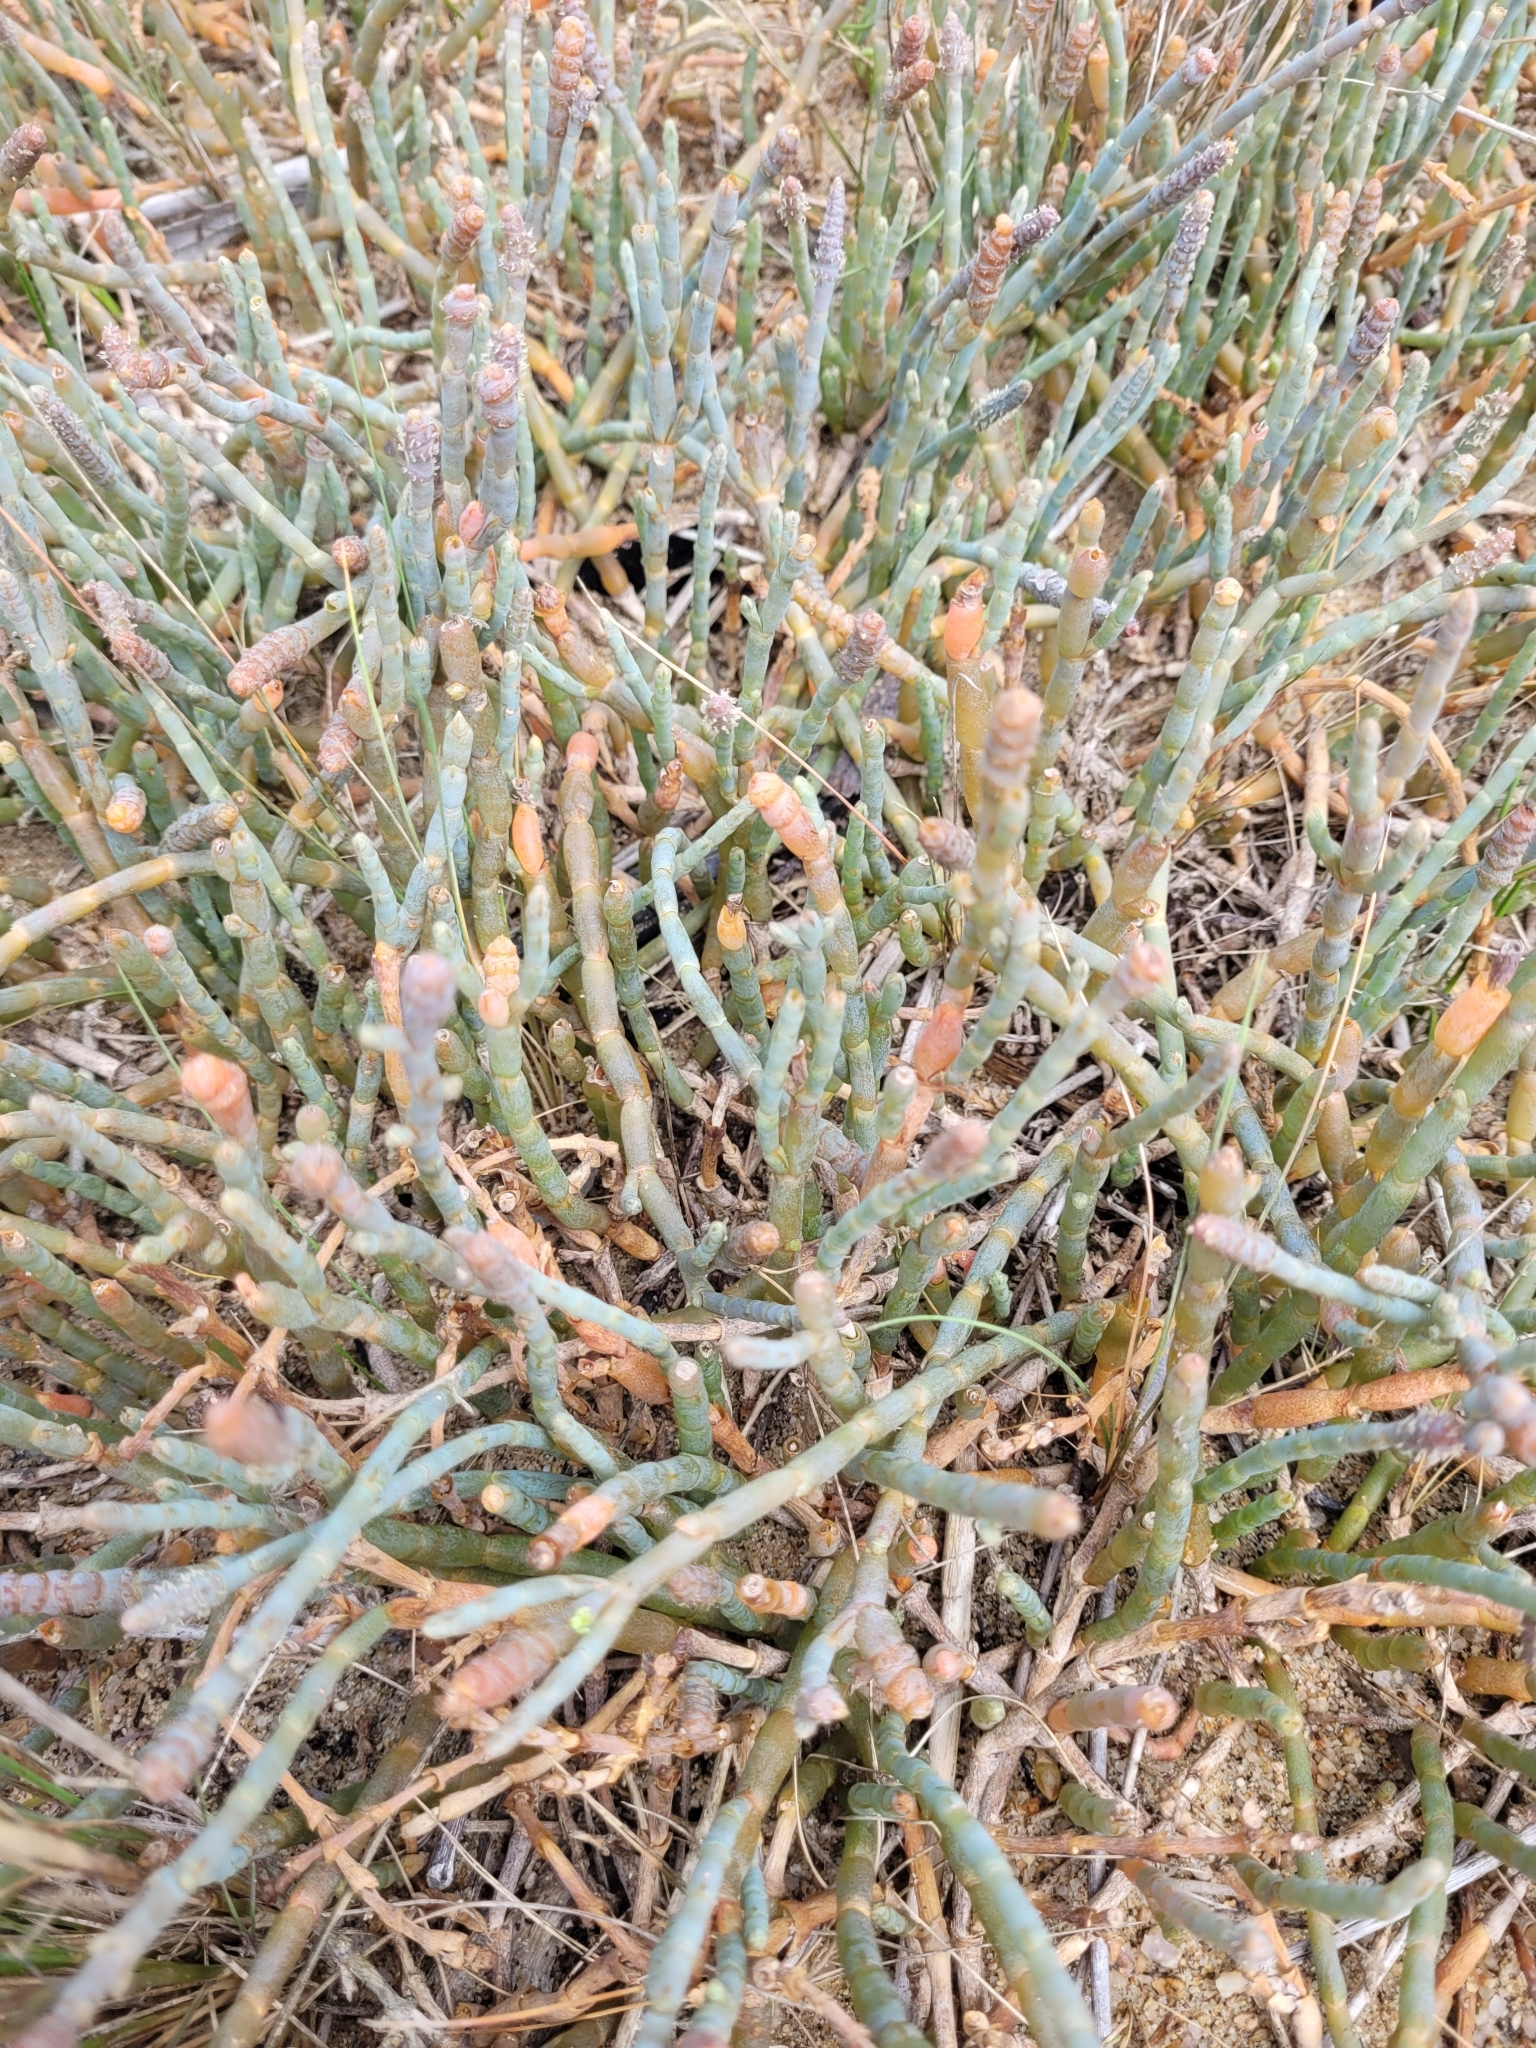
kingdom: Plantae
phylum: Tracheophyta
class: Magnoliopsida
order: Caryophyllales
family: Amaranthaceae
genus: Salicornia
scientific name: Salicornia quinqueflora
